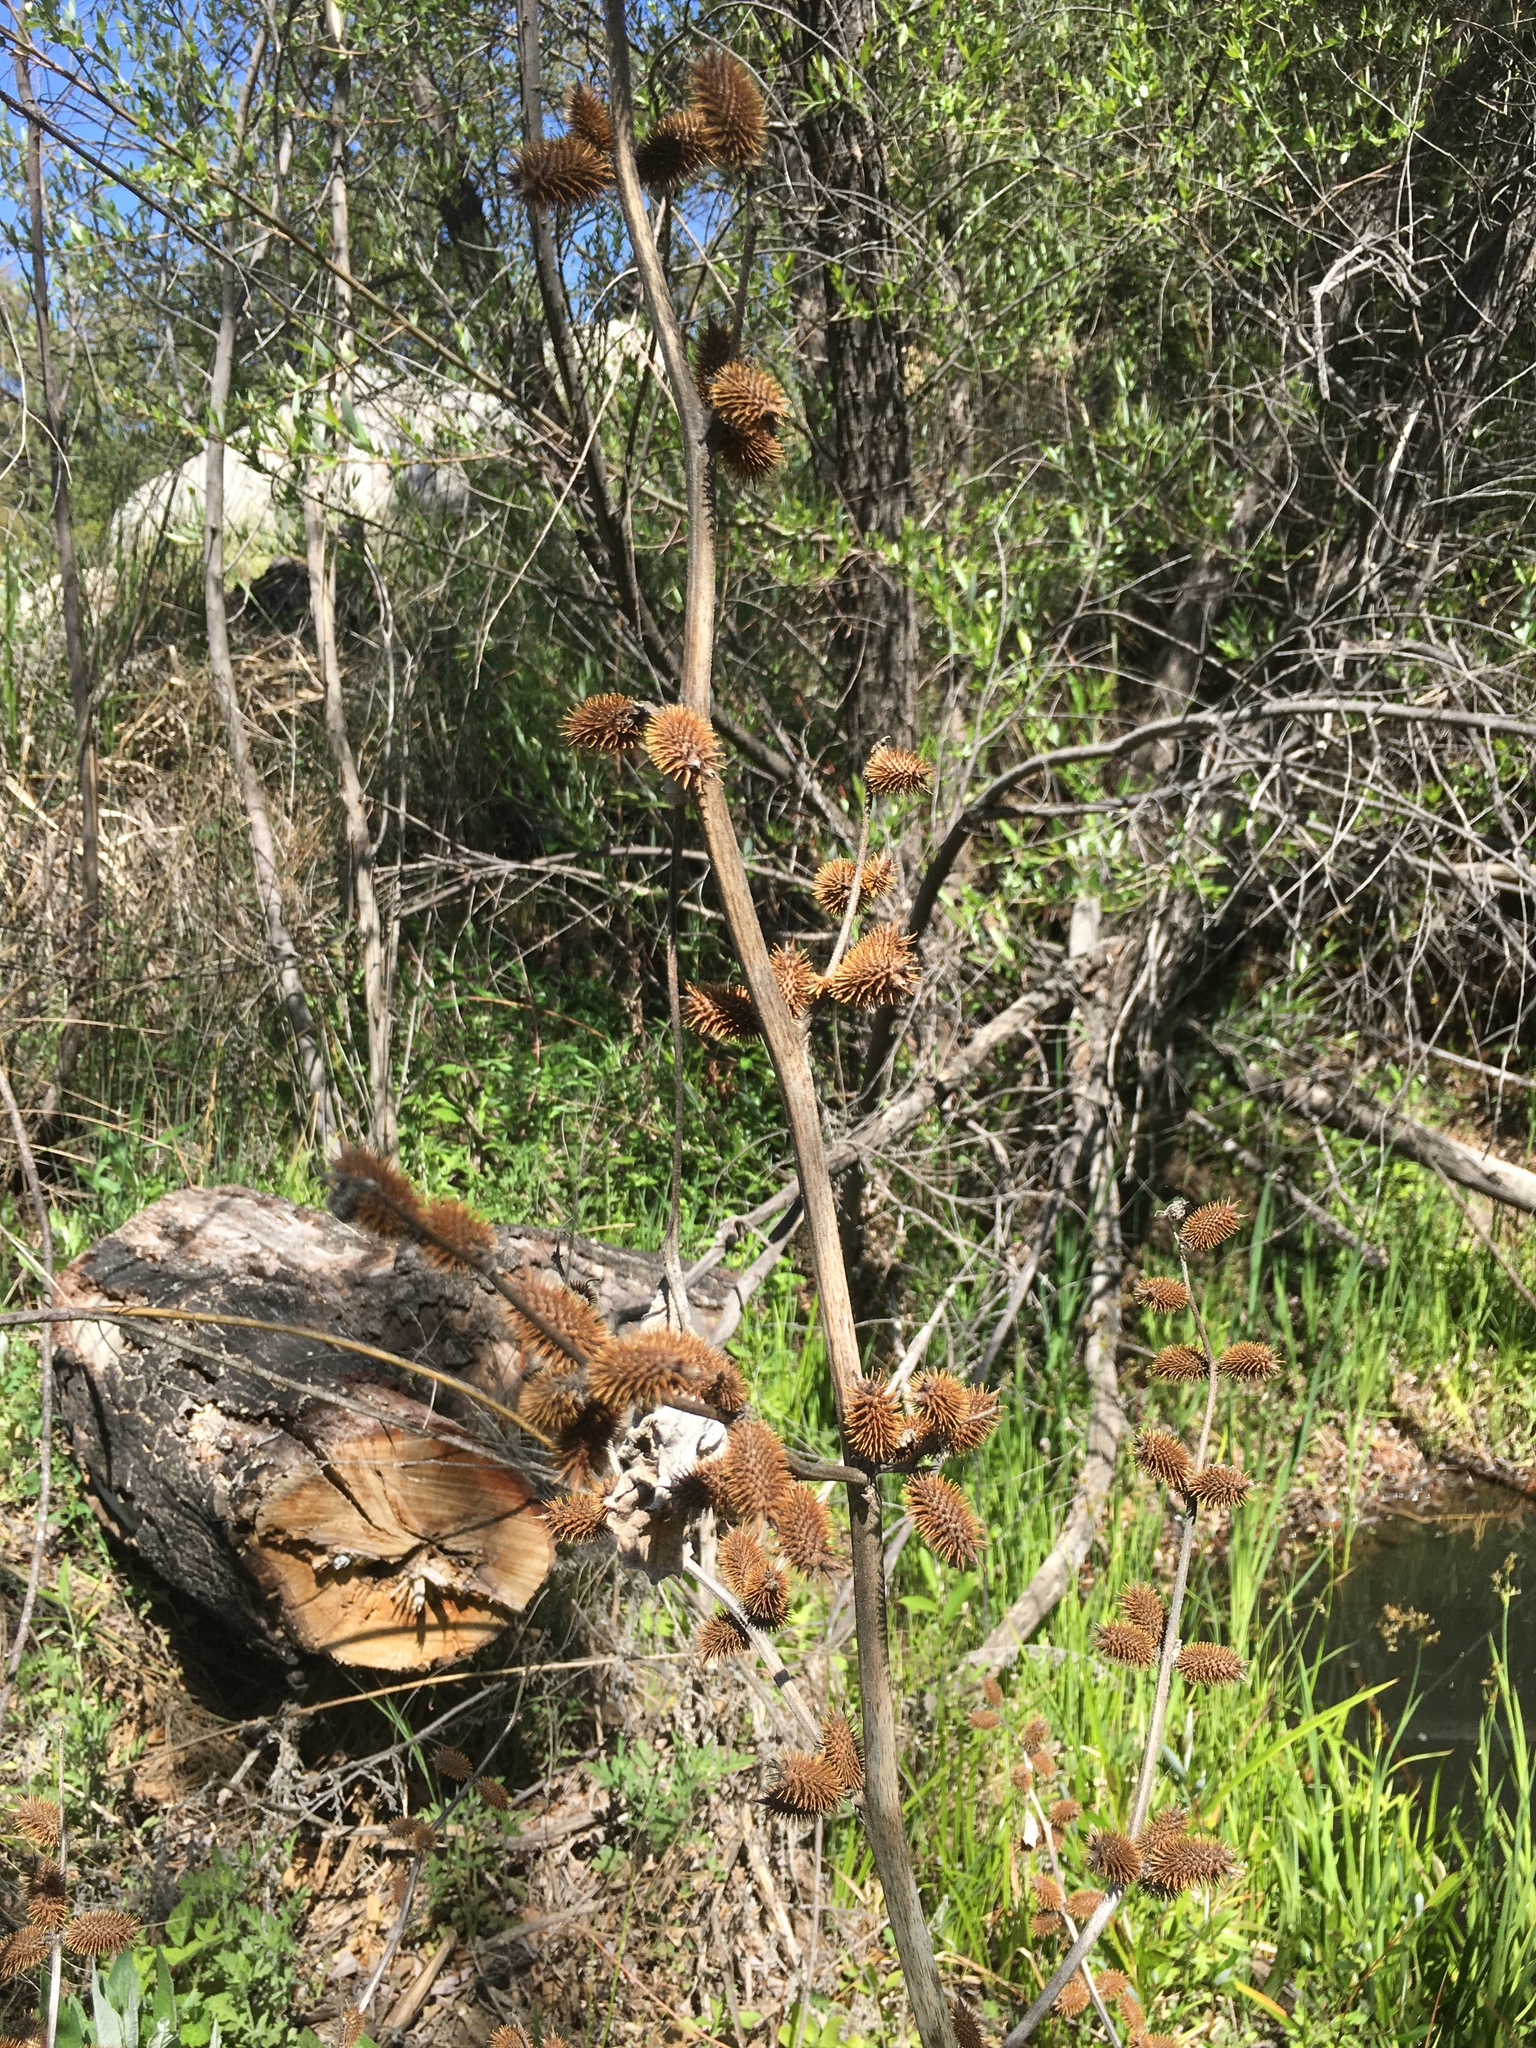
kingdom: Plantae
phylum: Tracheophyta
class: Magnoliopsida
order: Asterales
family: Asteraceae
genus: Xanthium
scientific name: Xanthium strumarium
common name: Rough cocklebur
